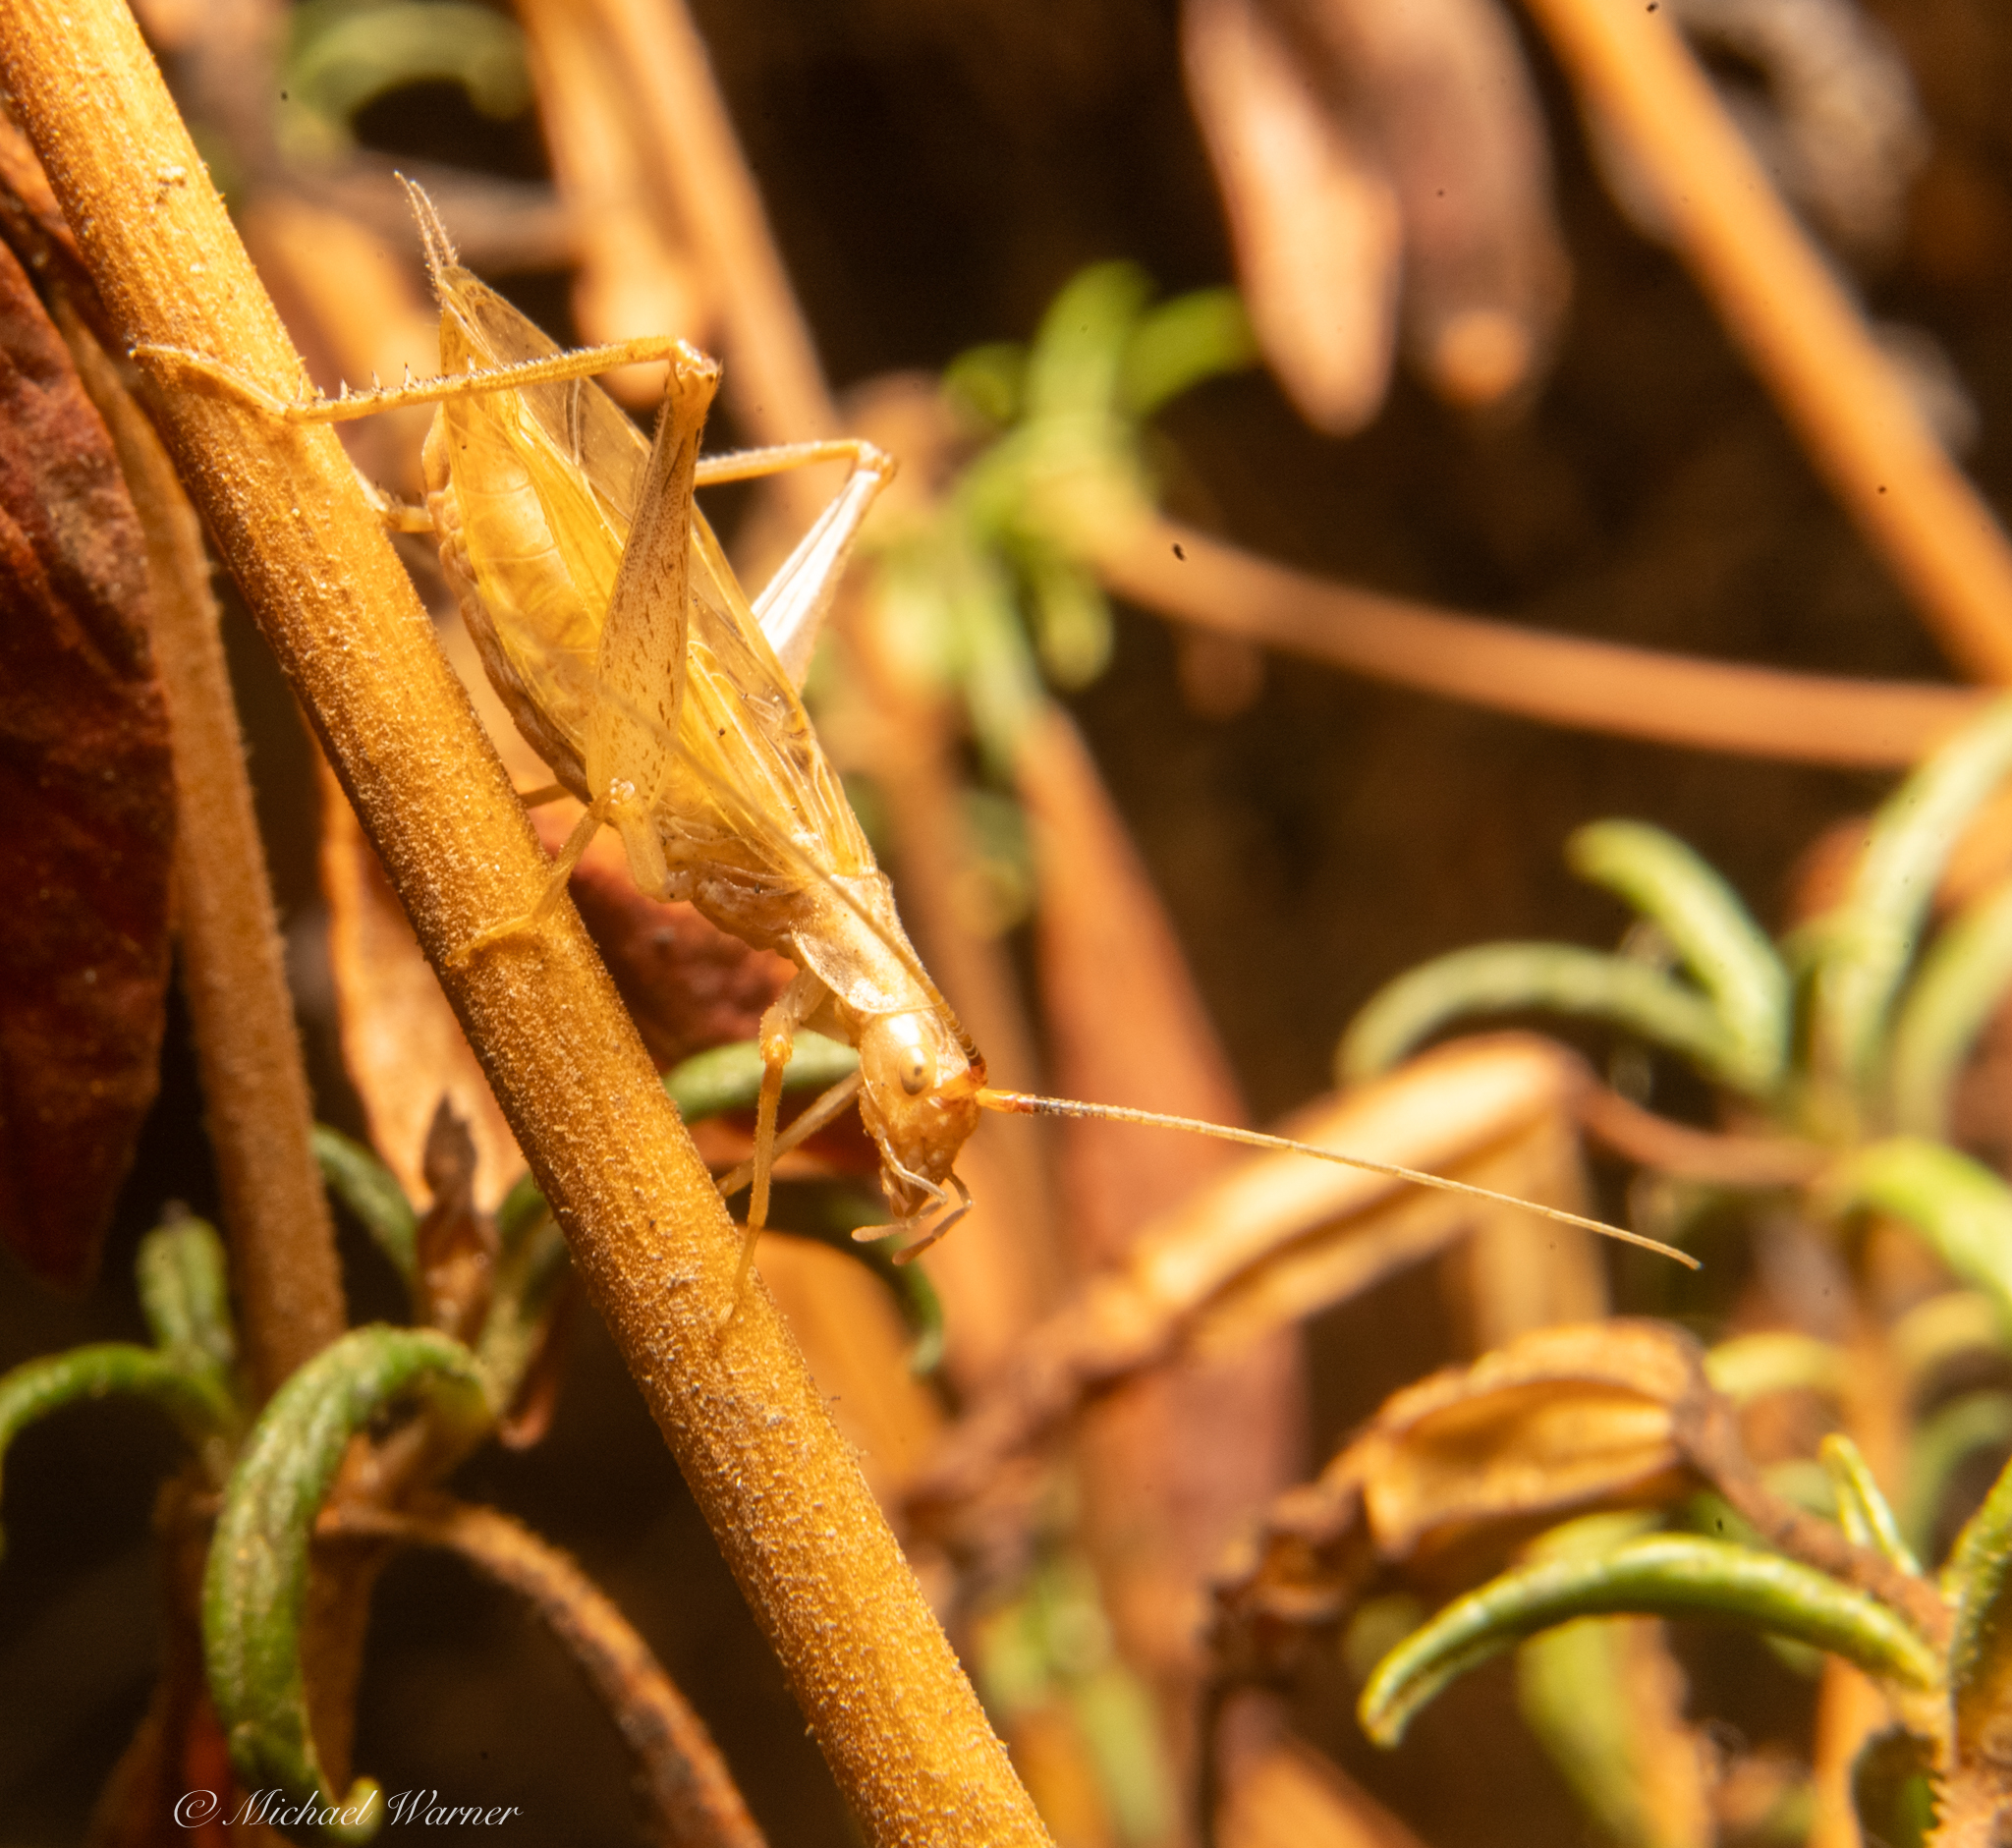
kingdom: Animalia
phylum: Arthropoda
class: Insecta
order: Orthoptera
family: Gryllidae
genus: Oecanthus
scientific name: Oecanthus californicus
